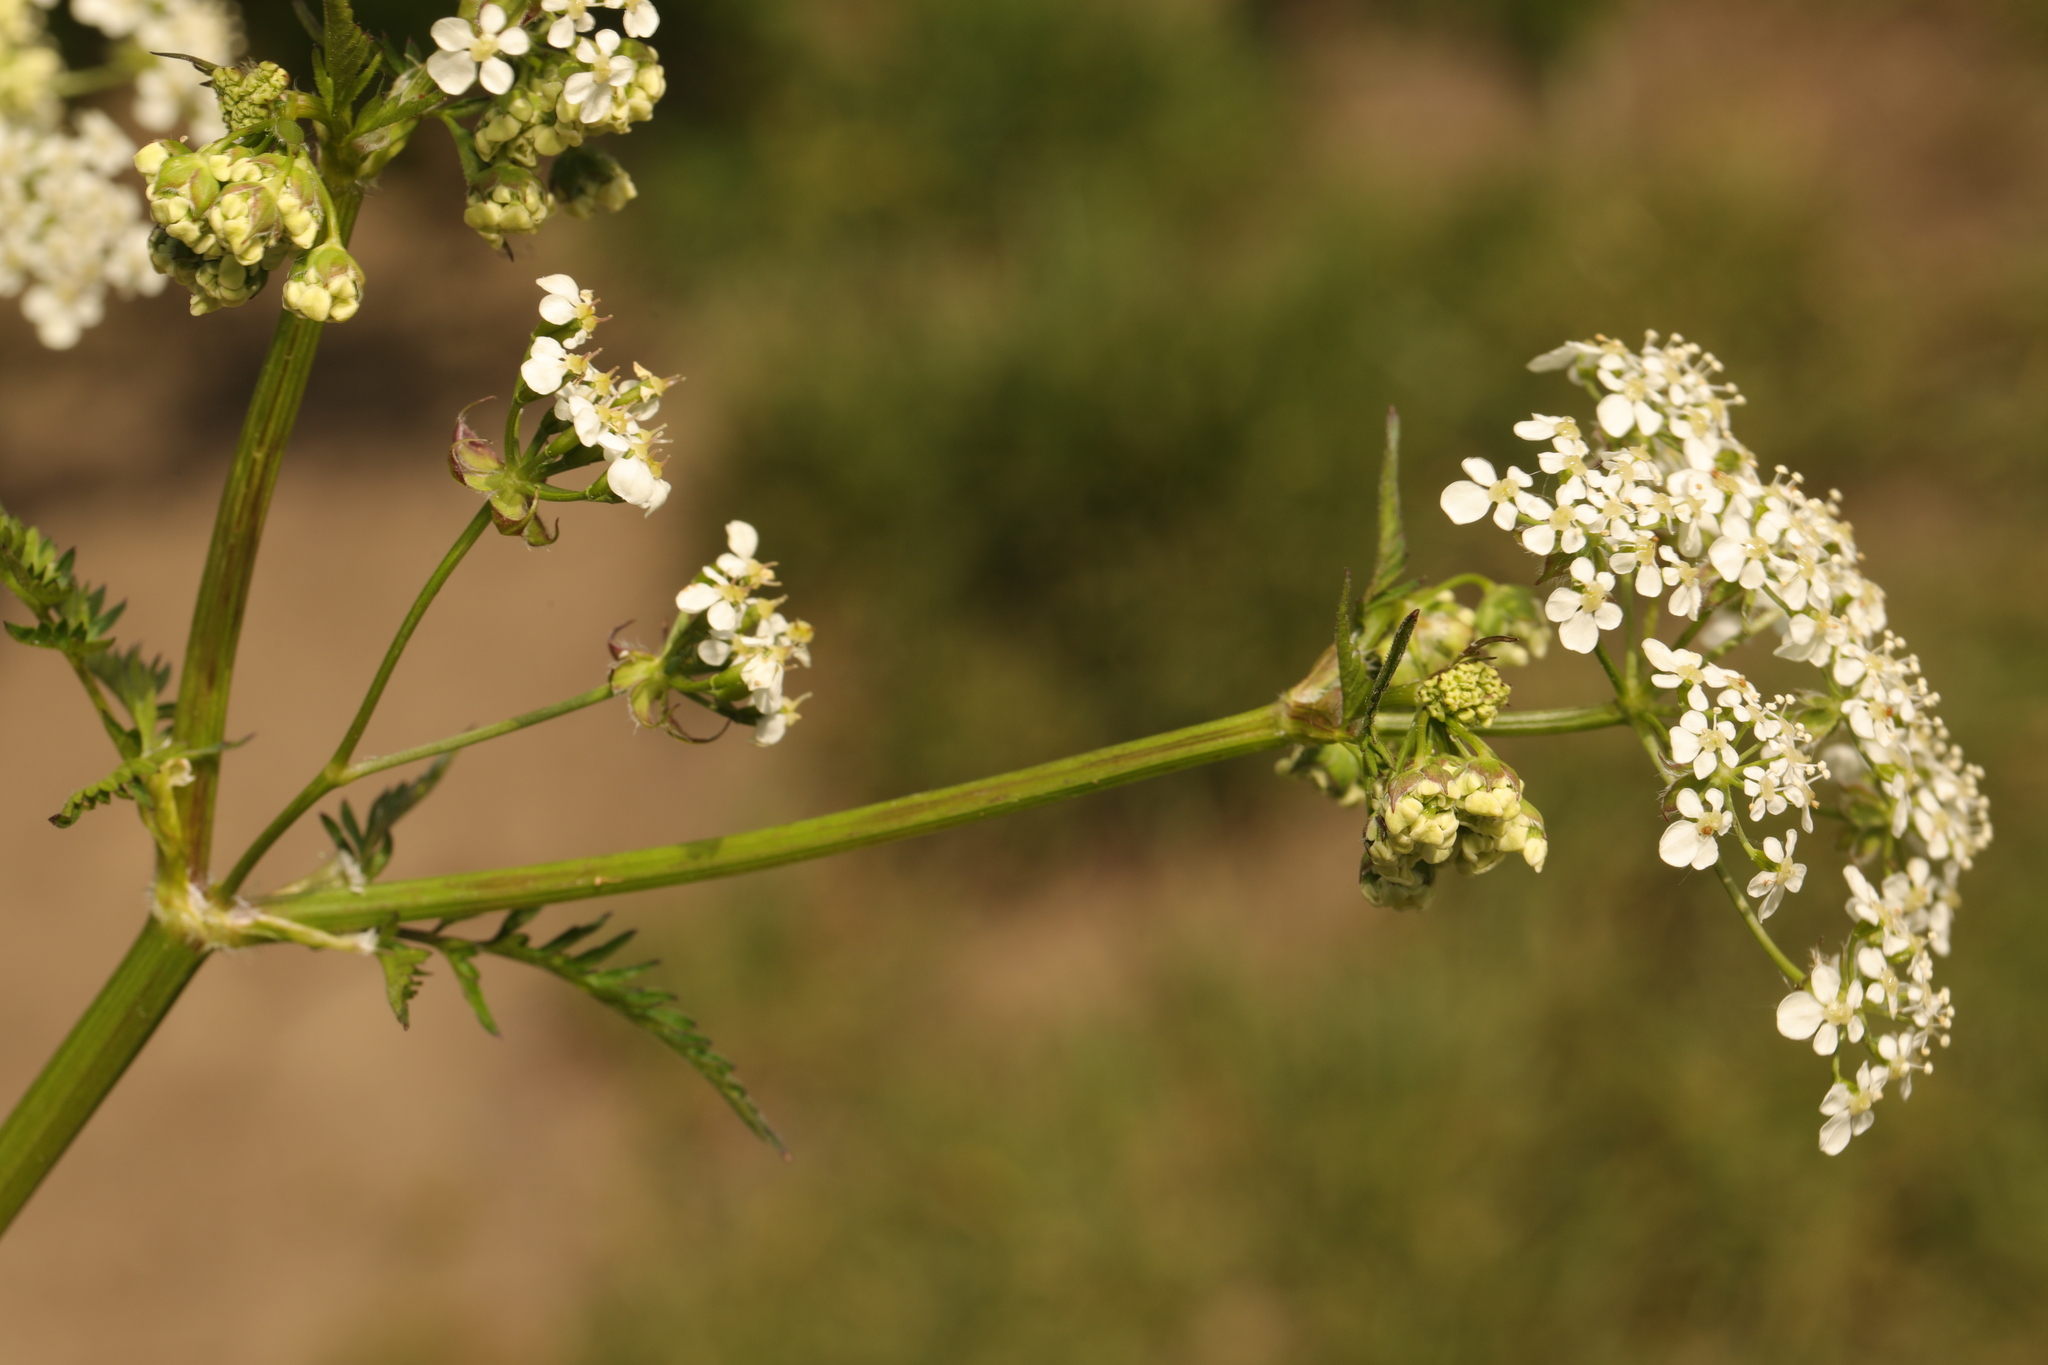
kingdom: Plantae
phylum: Tracheophyta
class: Magnoliopsida
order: Apiales
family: Apiaceae
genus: Anthriscus
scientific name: Anthriscus sylvestris
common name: Cow parsley
